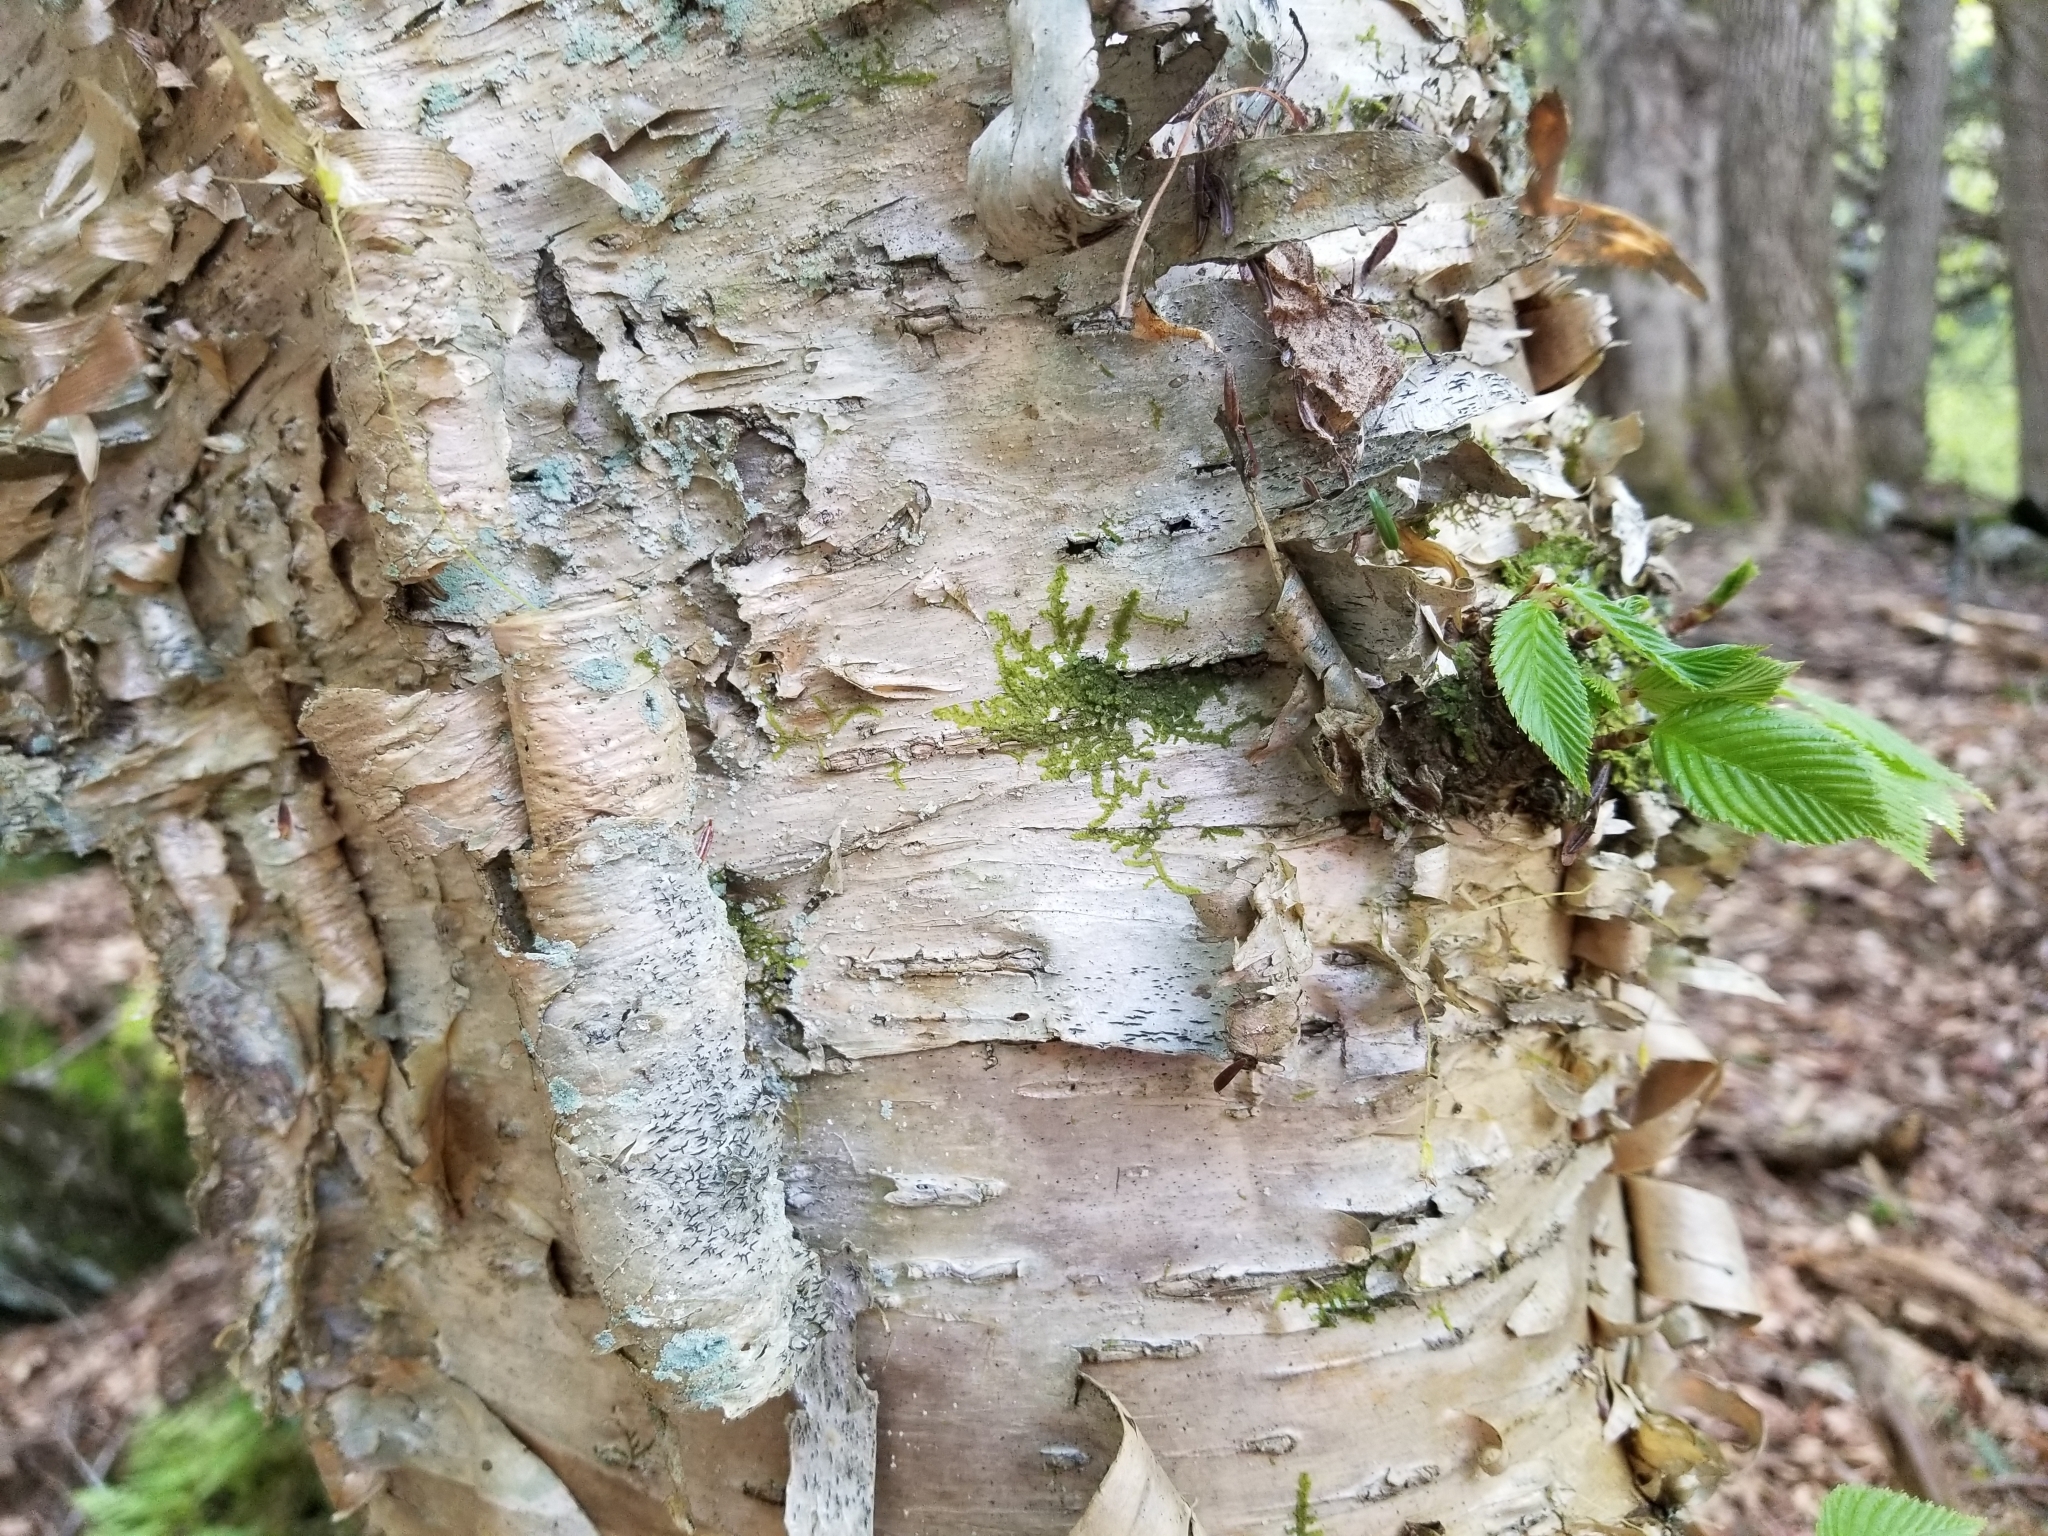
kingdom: Plantae
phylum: Tracheophyta
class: Magnoliopsida
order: Fagales
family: Betulaceae
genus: Betula
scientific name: Betula alleghaniensis
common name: Yellow birch
